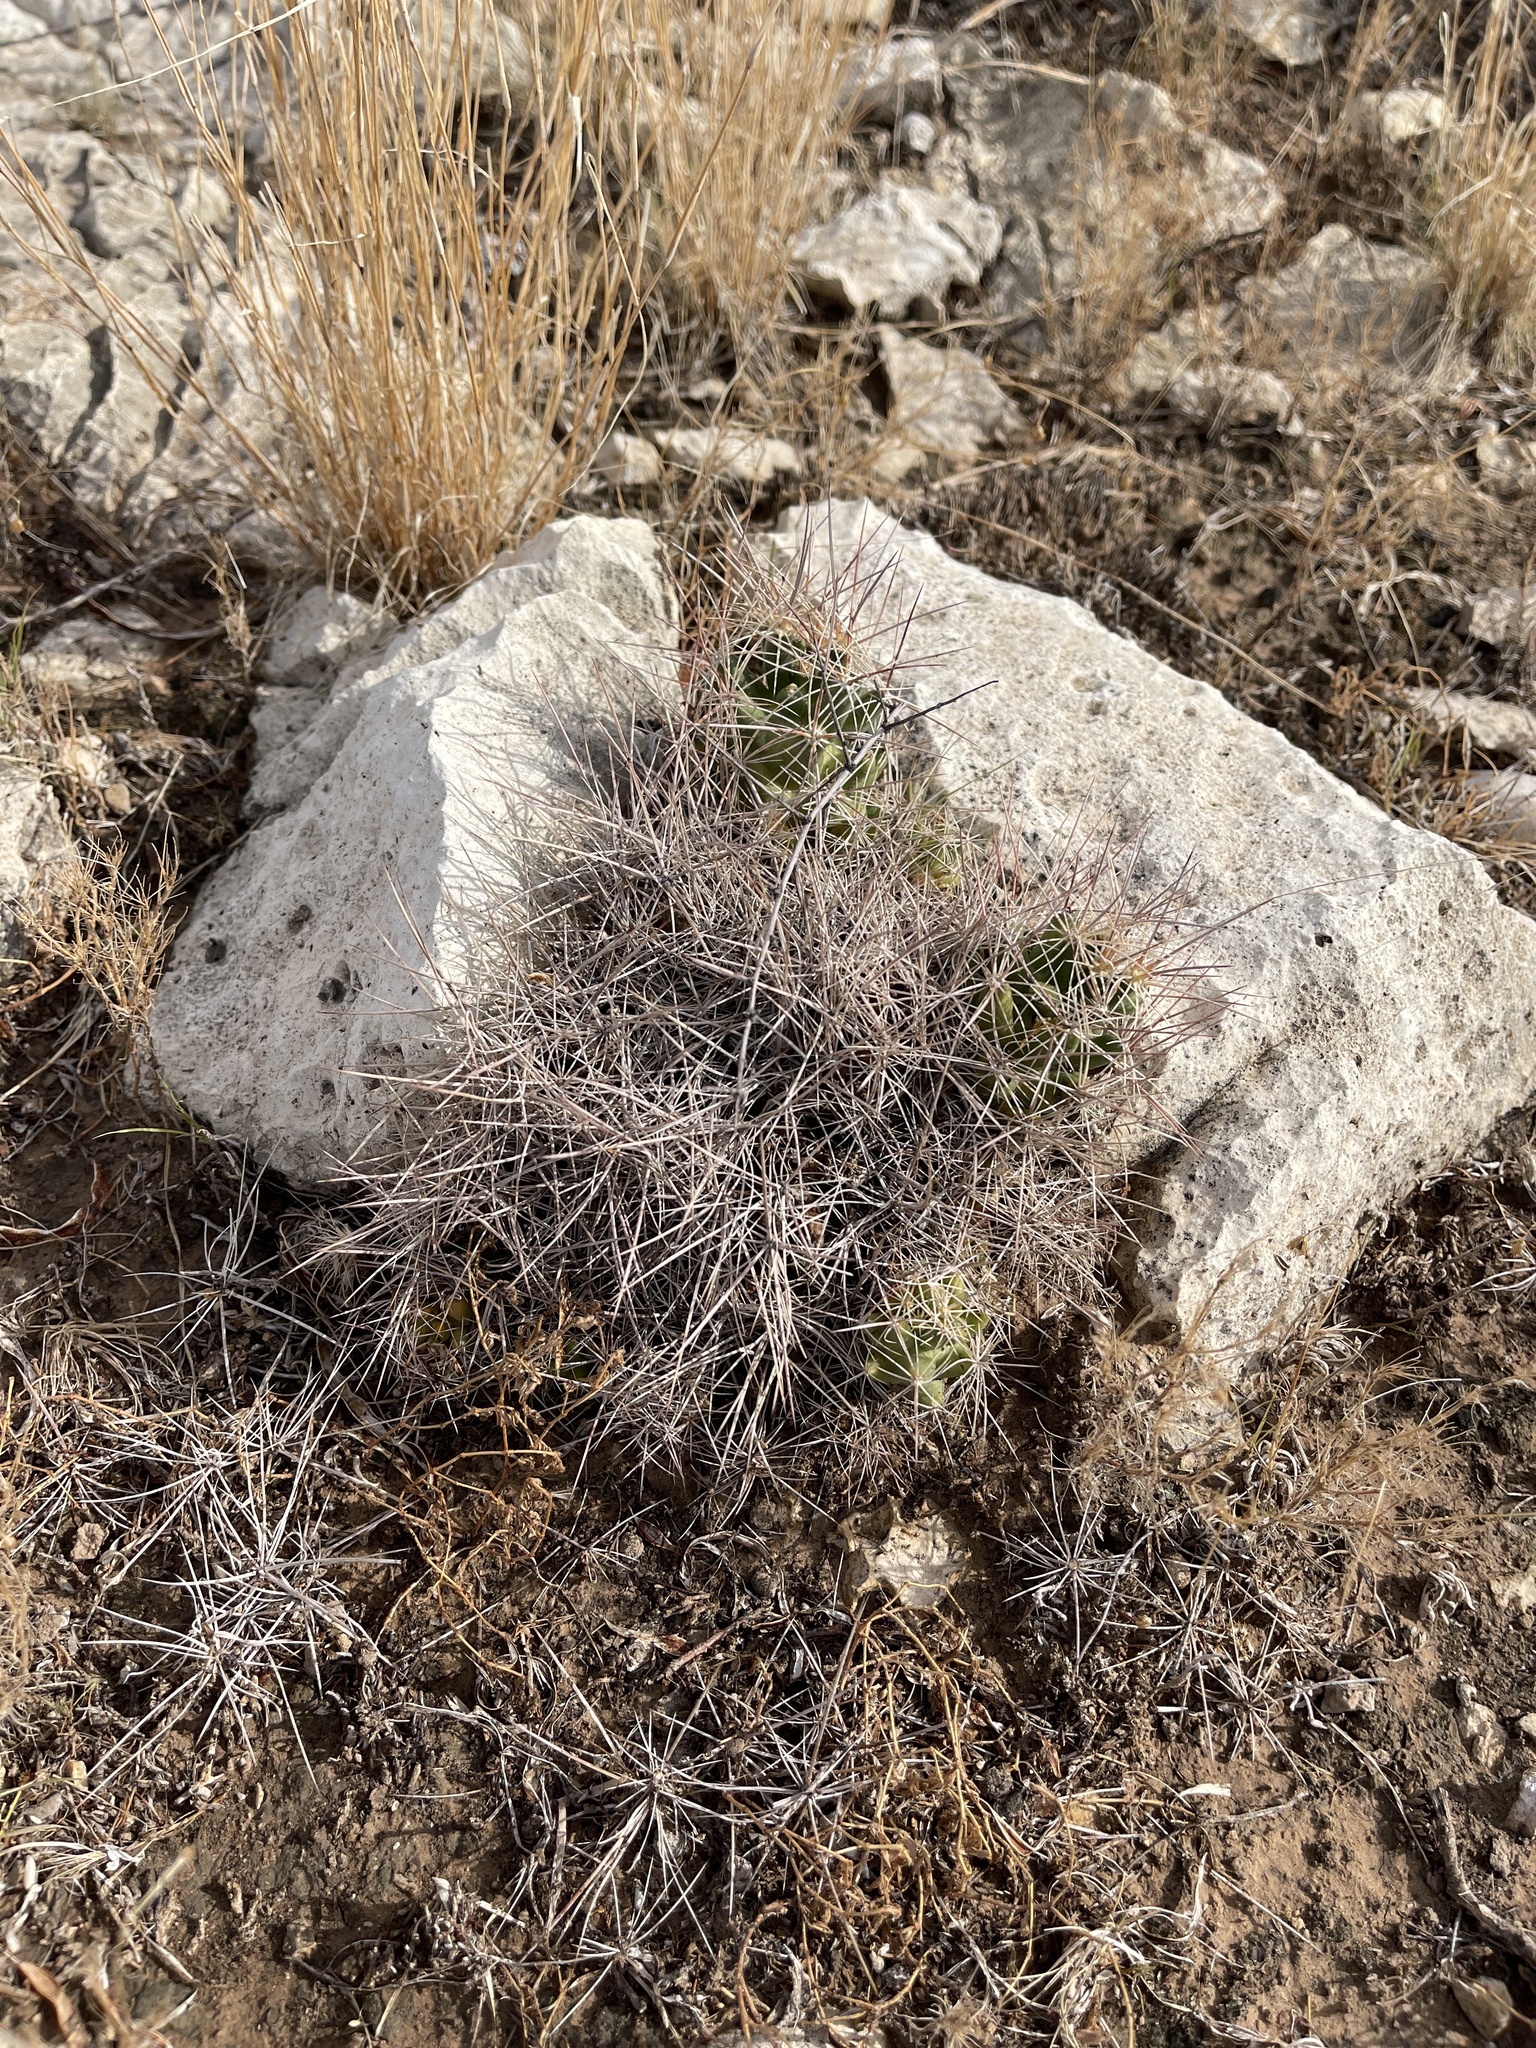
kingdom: Plantae
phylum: Tracheophyta
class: Magnoliopsida
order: Caryophyllales
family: Cactaceae
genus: Coryphantha
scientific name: Coryphantha macromeris
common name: Nipple beehive cactus
